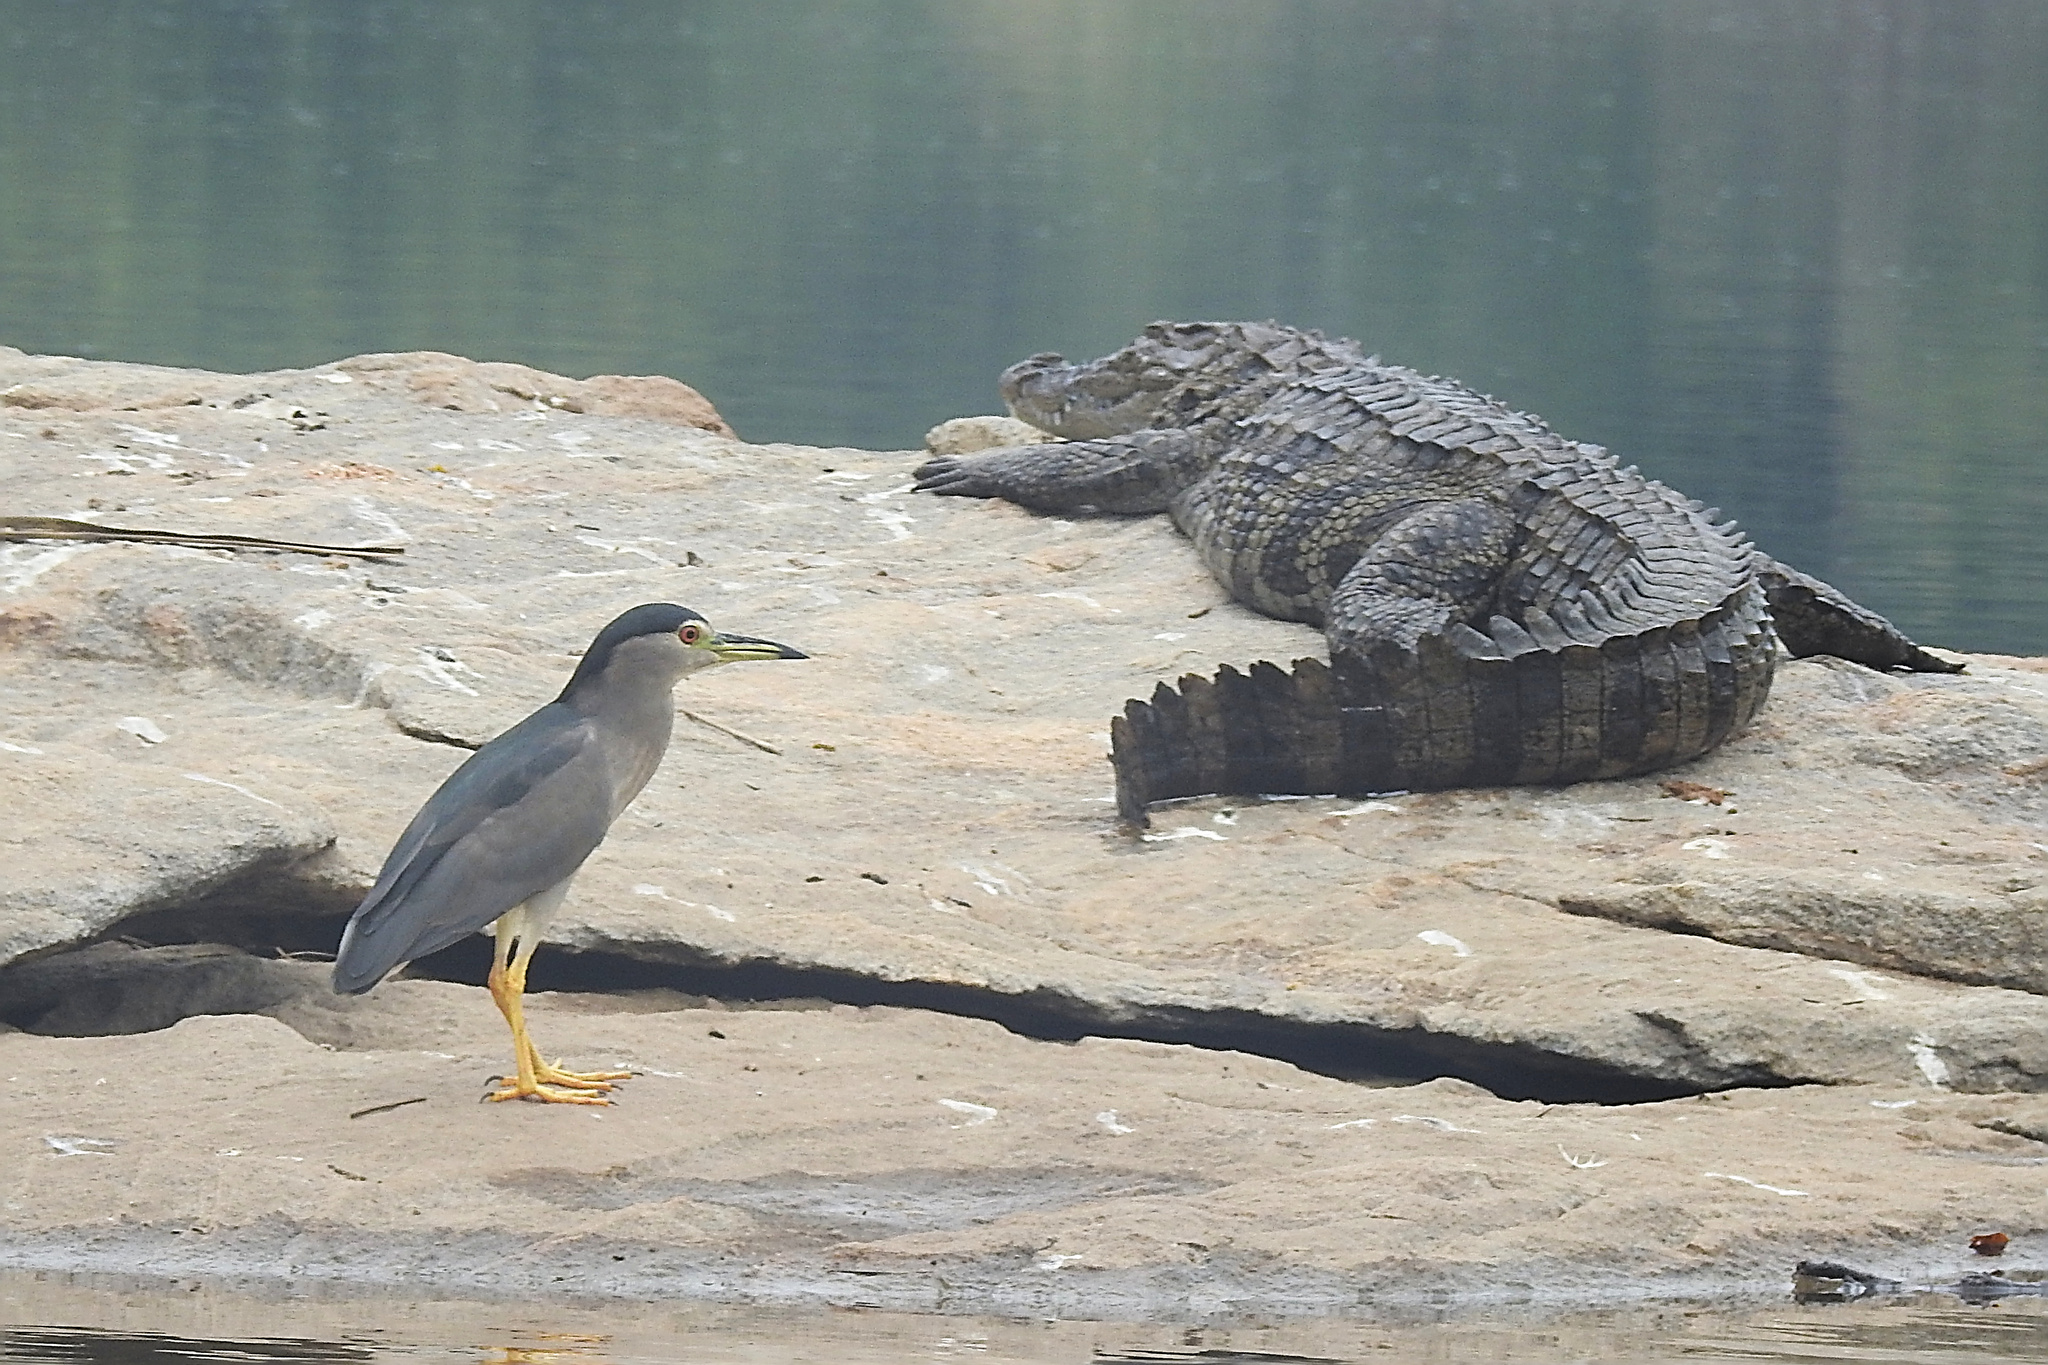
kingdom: Animalia
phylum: Chordata
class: Aves
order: Pelecaniformes
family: Ardeidae
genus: Nycticorax
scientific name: Nycticorax nycticorax
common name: Black-crowned night heron
